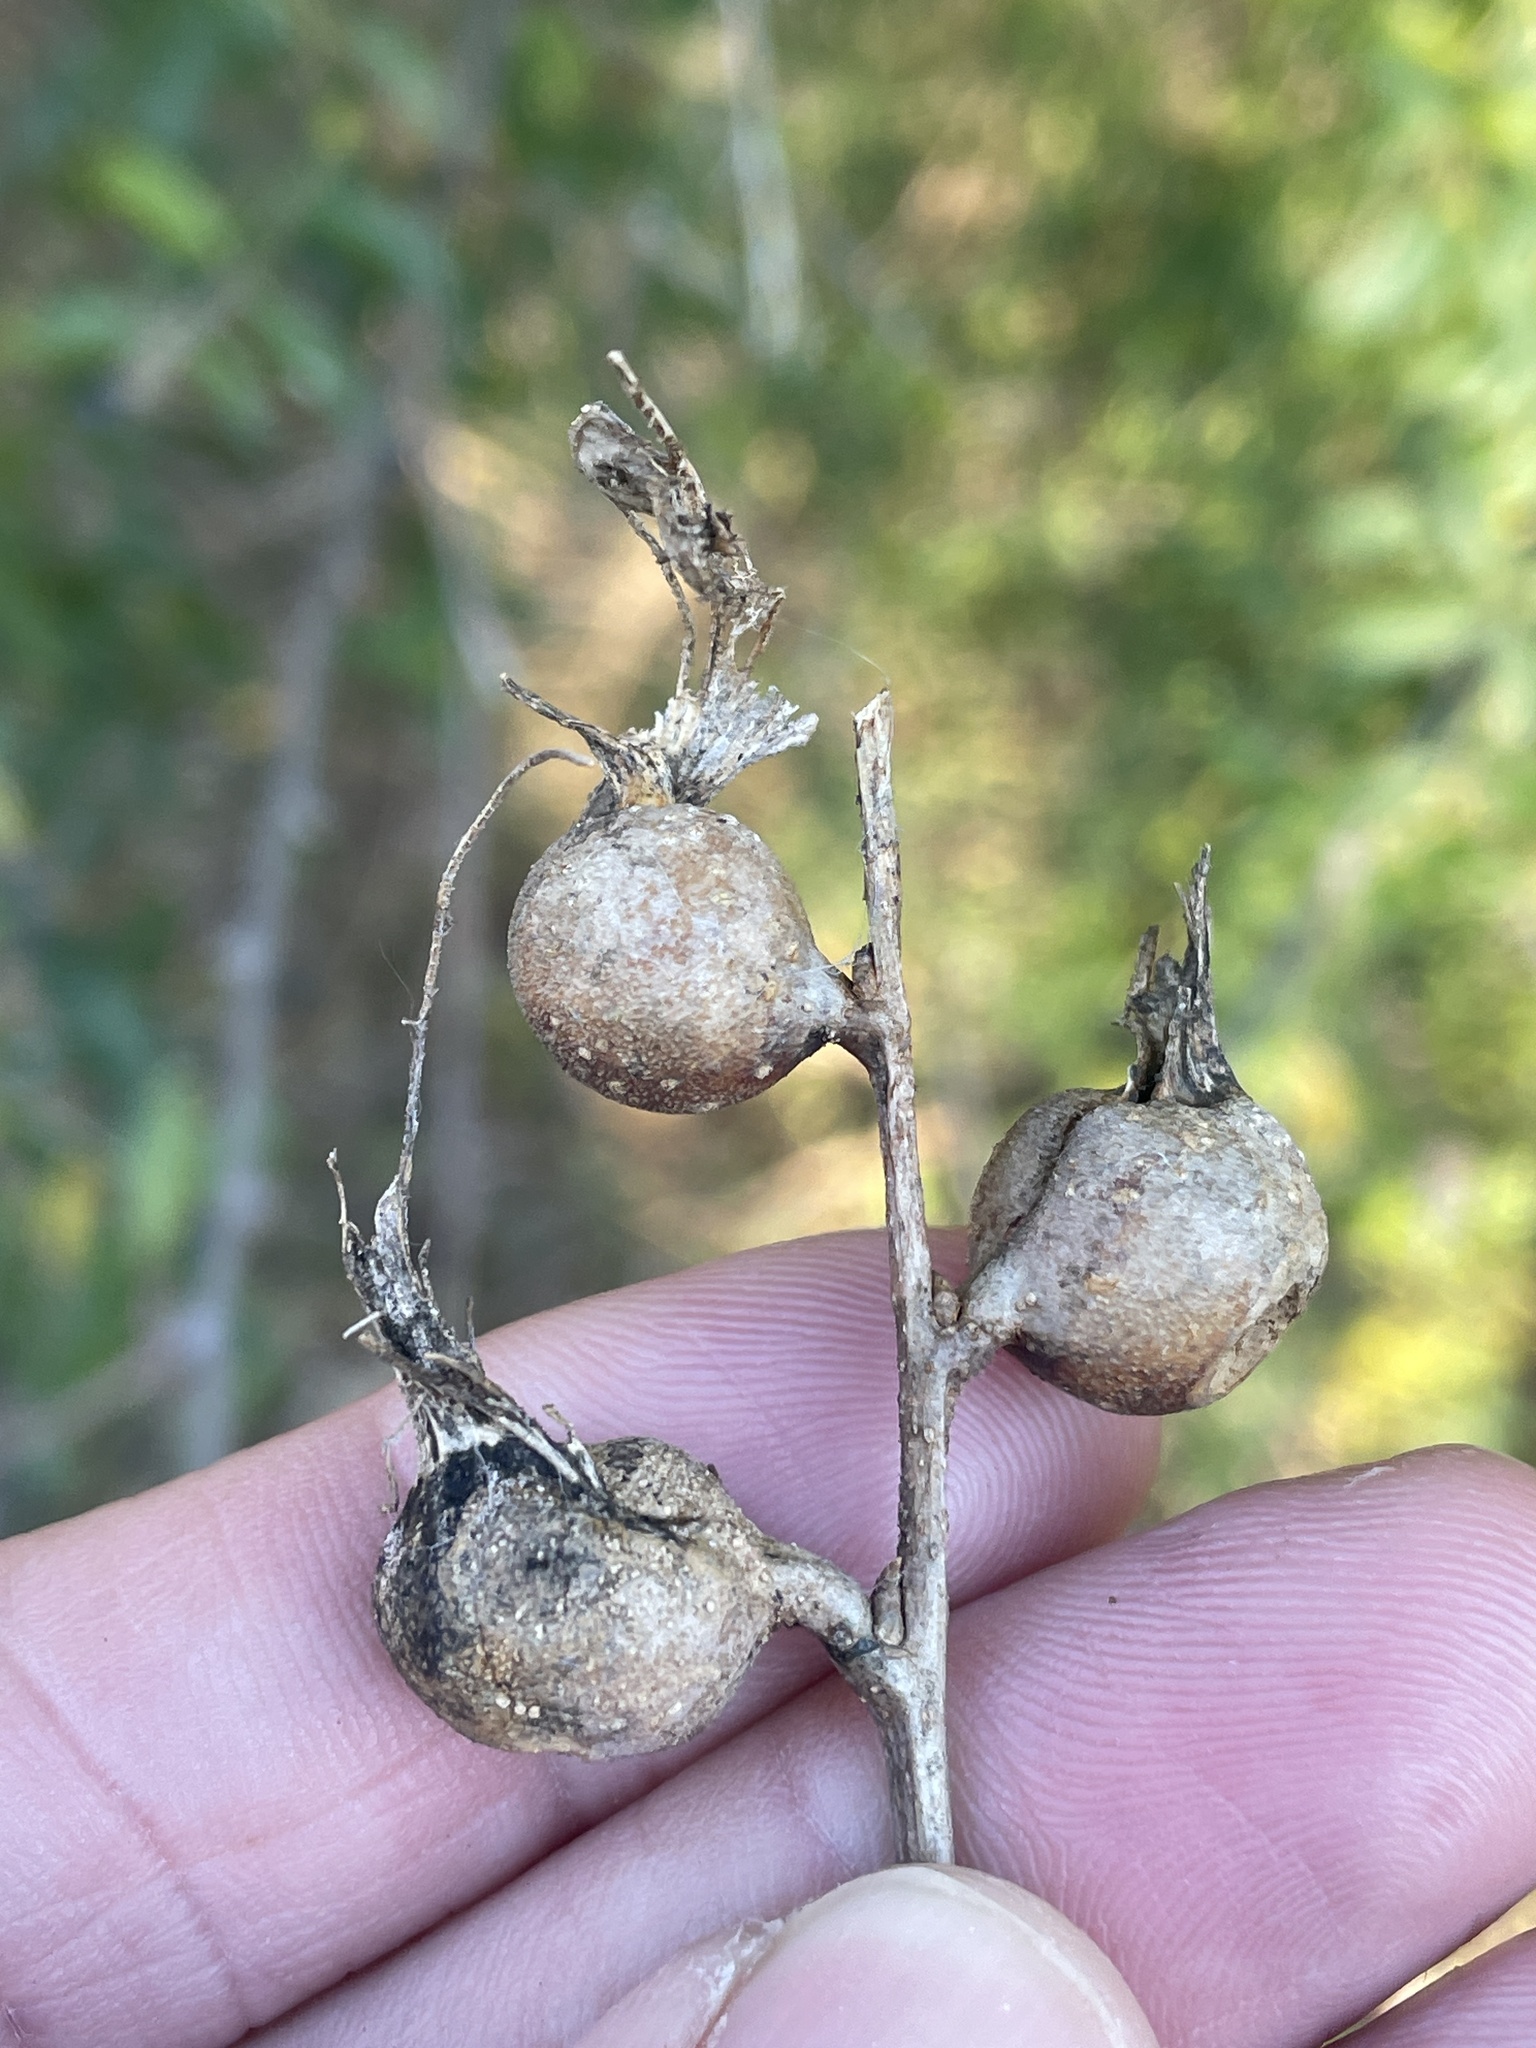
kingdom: Animalia
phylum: Arthropoda
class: Insecta
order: Hemiptera
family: Aphalaridae
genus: Pachypsylla
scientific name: Pachypsylla venusta
